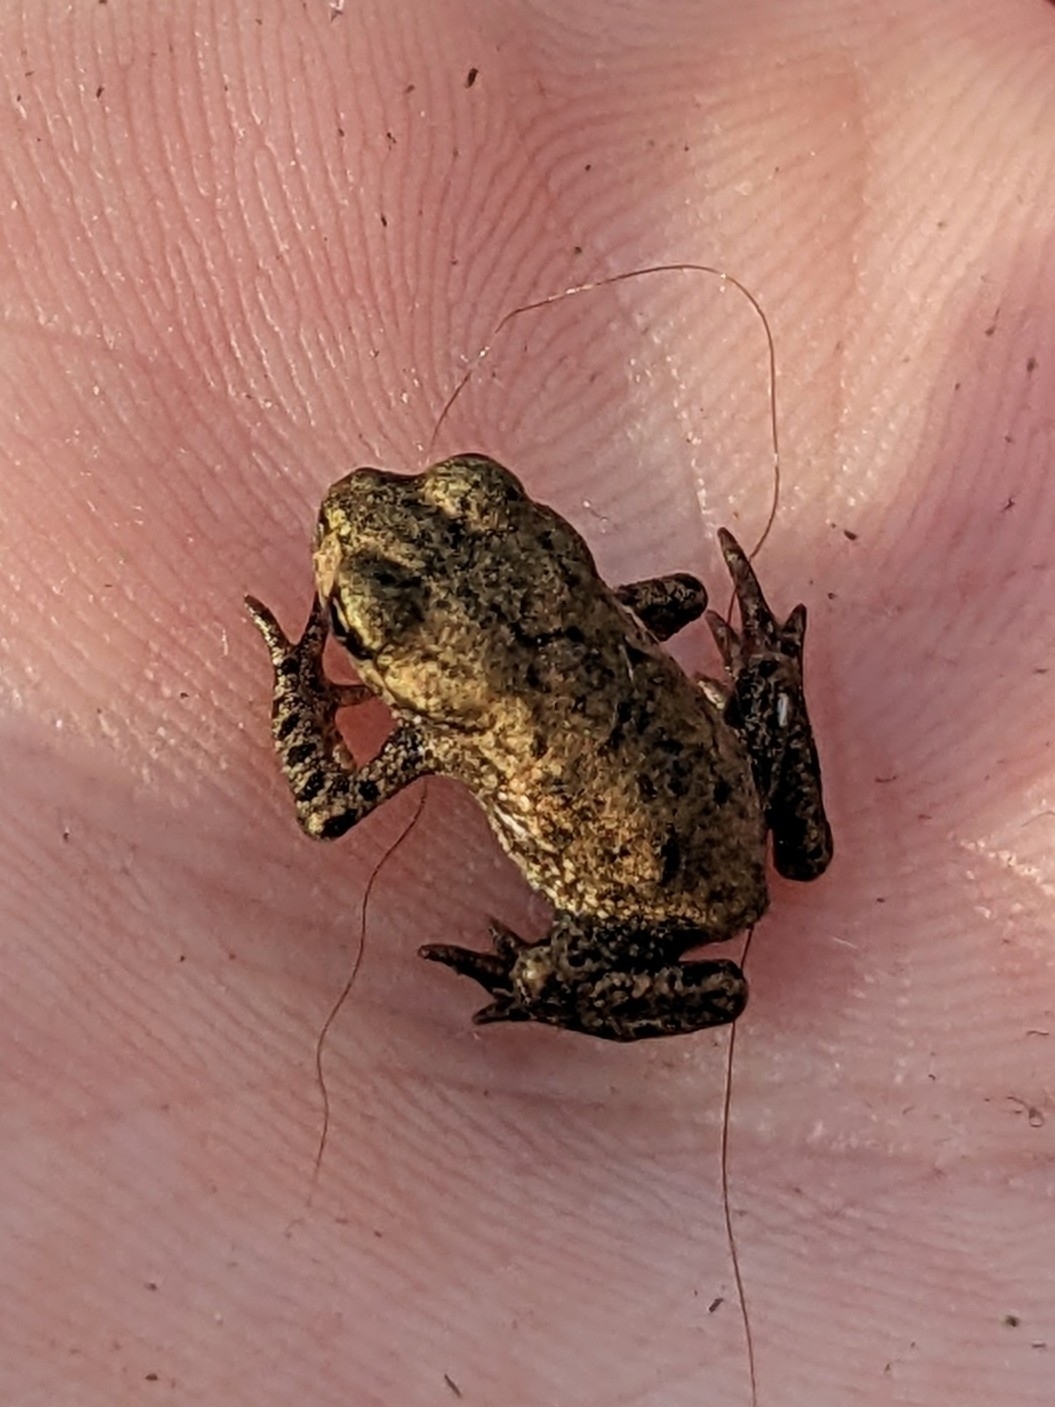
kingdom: Animalia
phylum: Chordata
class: Amphibia
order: Anura
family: Bufonidae
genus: Bufo
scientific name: Bufo bufo
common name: Common toad
